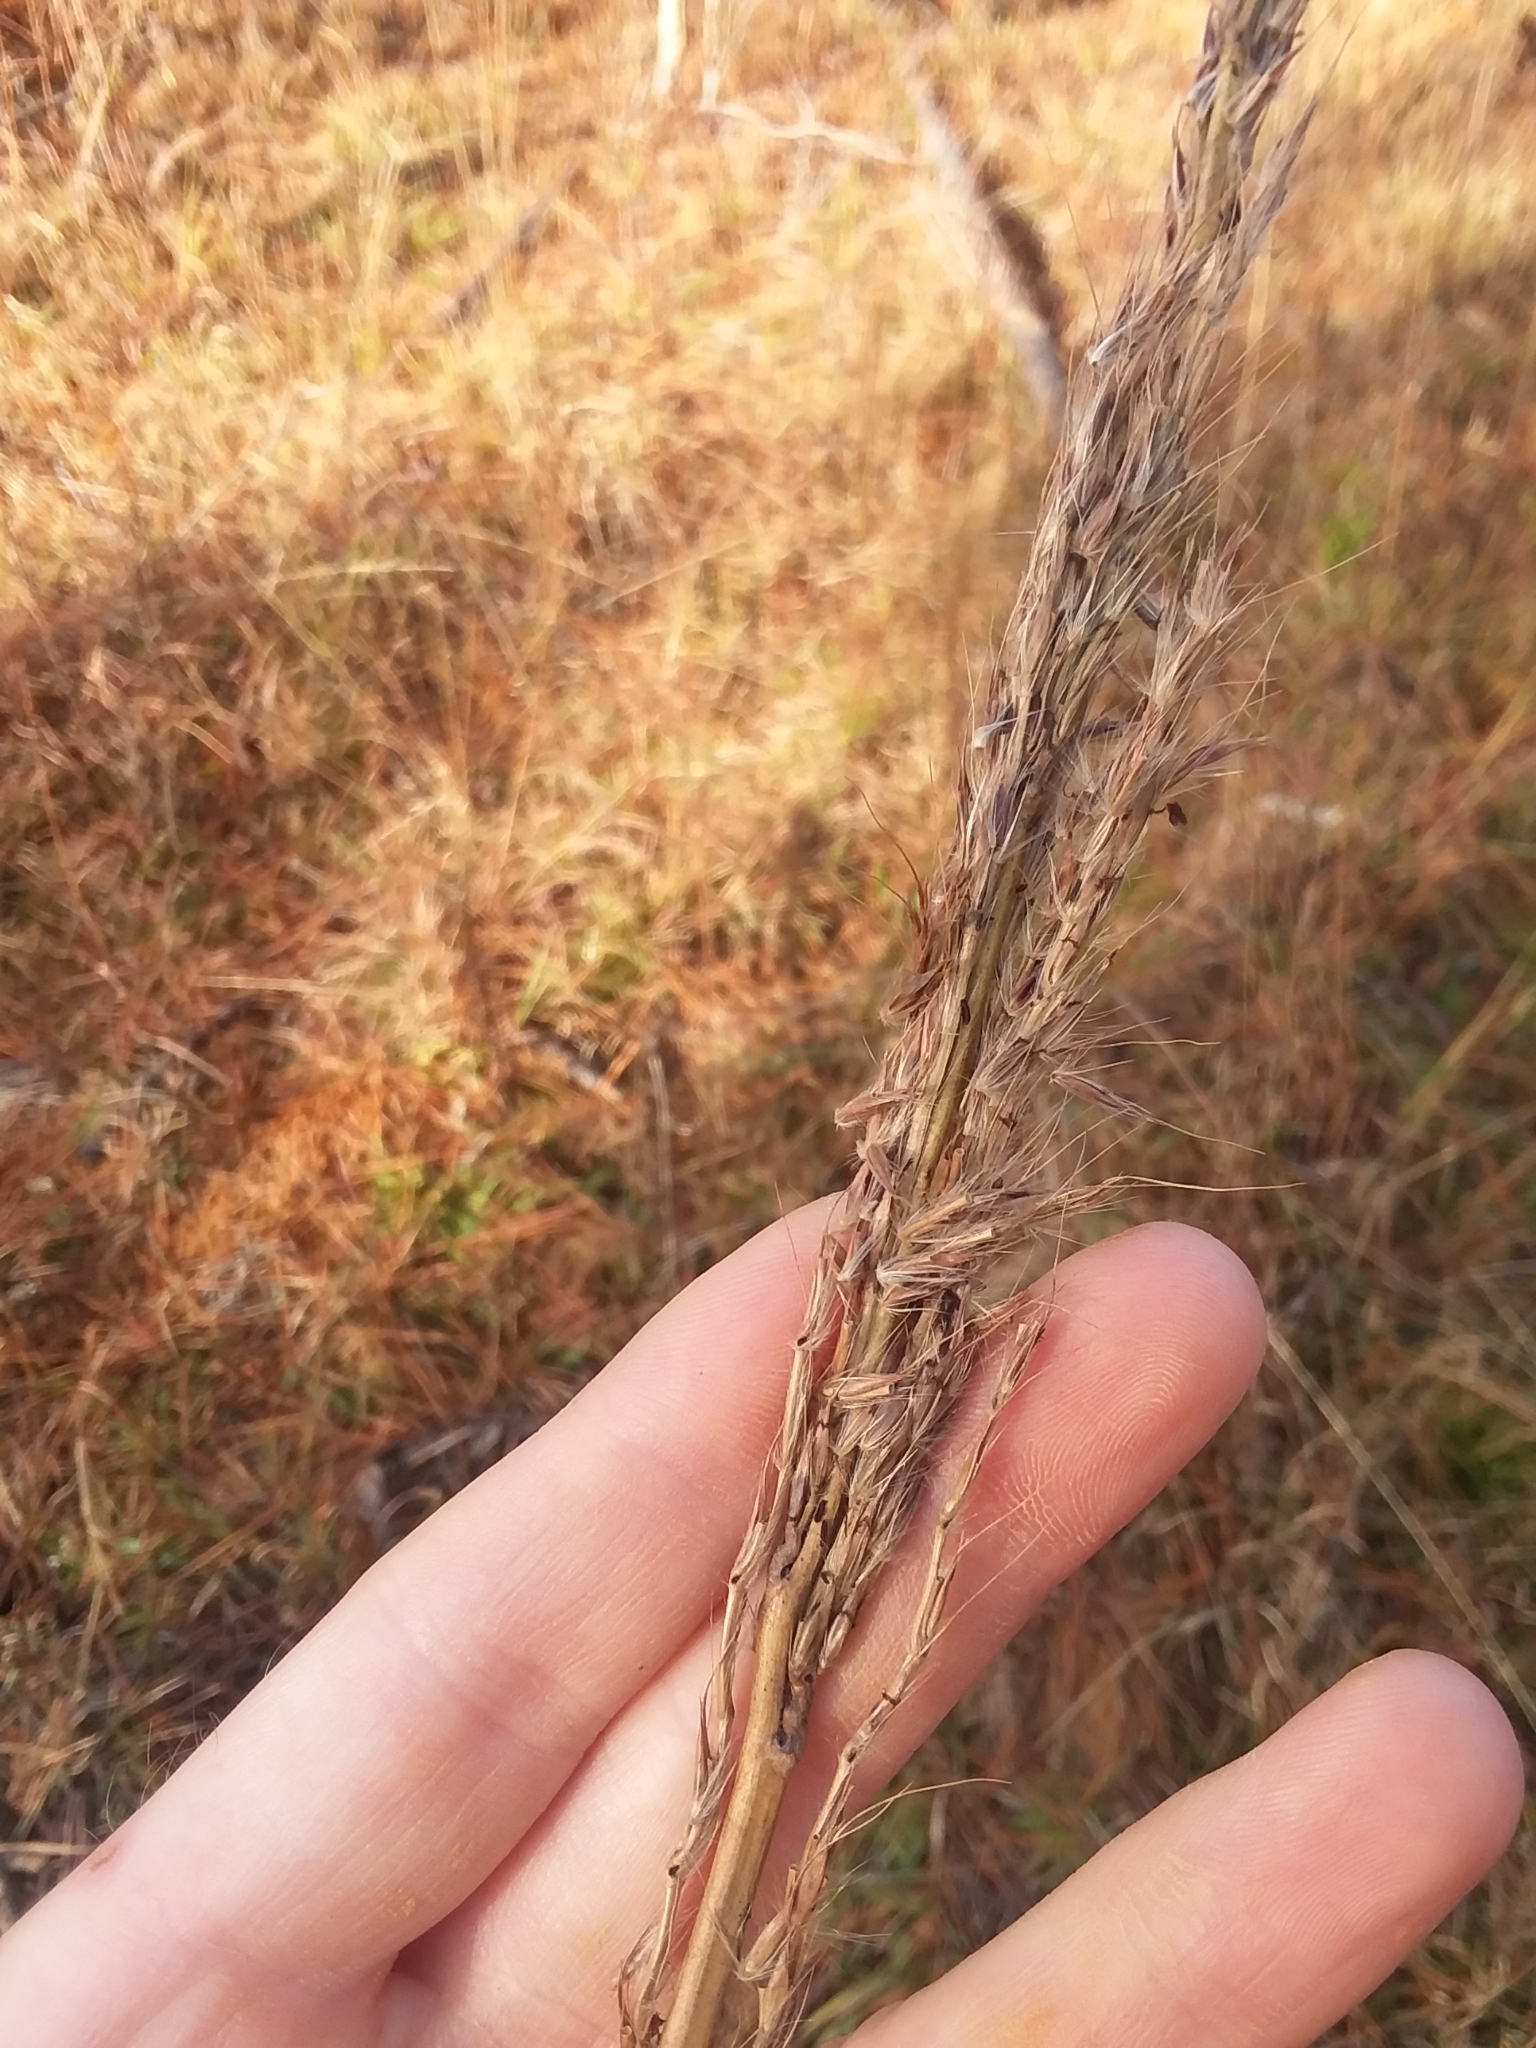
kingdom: Plantae
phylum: Tracheophyta
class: Liliopsida
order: Poales
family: Poaceae
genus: Erianthus
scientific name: Erianthus contortus
